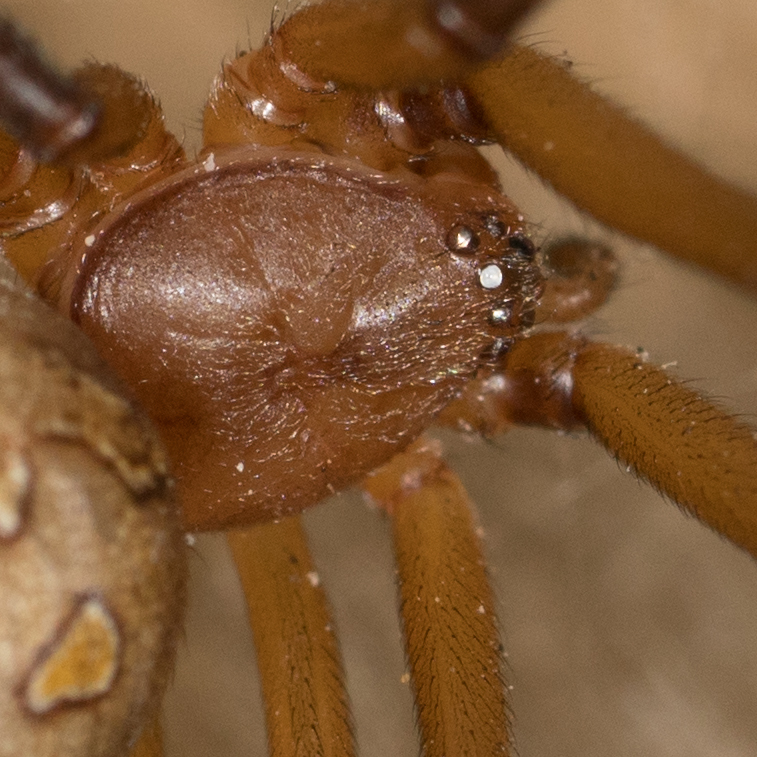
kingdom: Animalia
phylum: Arthropoda
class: Arachnida
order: Araneae
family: Theridiidae
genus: Latrodectus
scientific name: Latrodectus geometricus
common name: Brown widow spider
